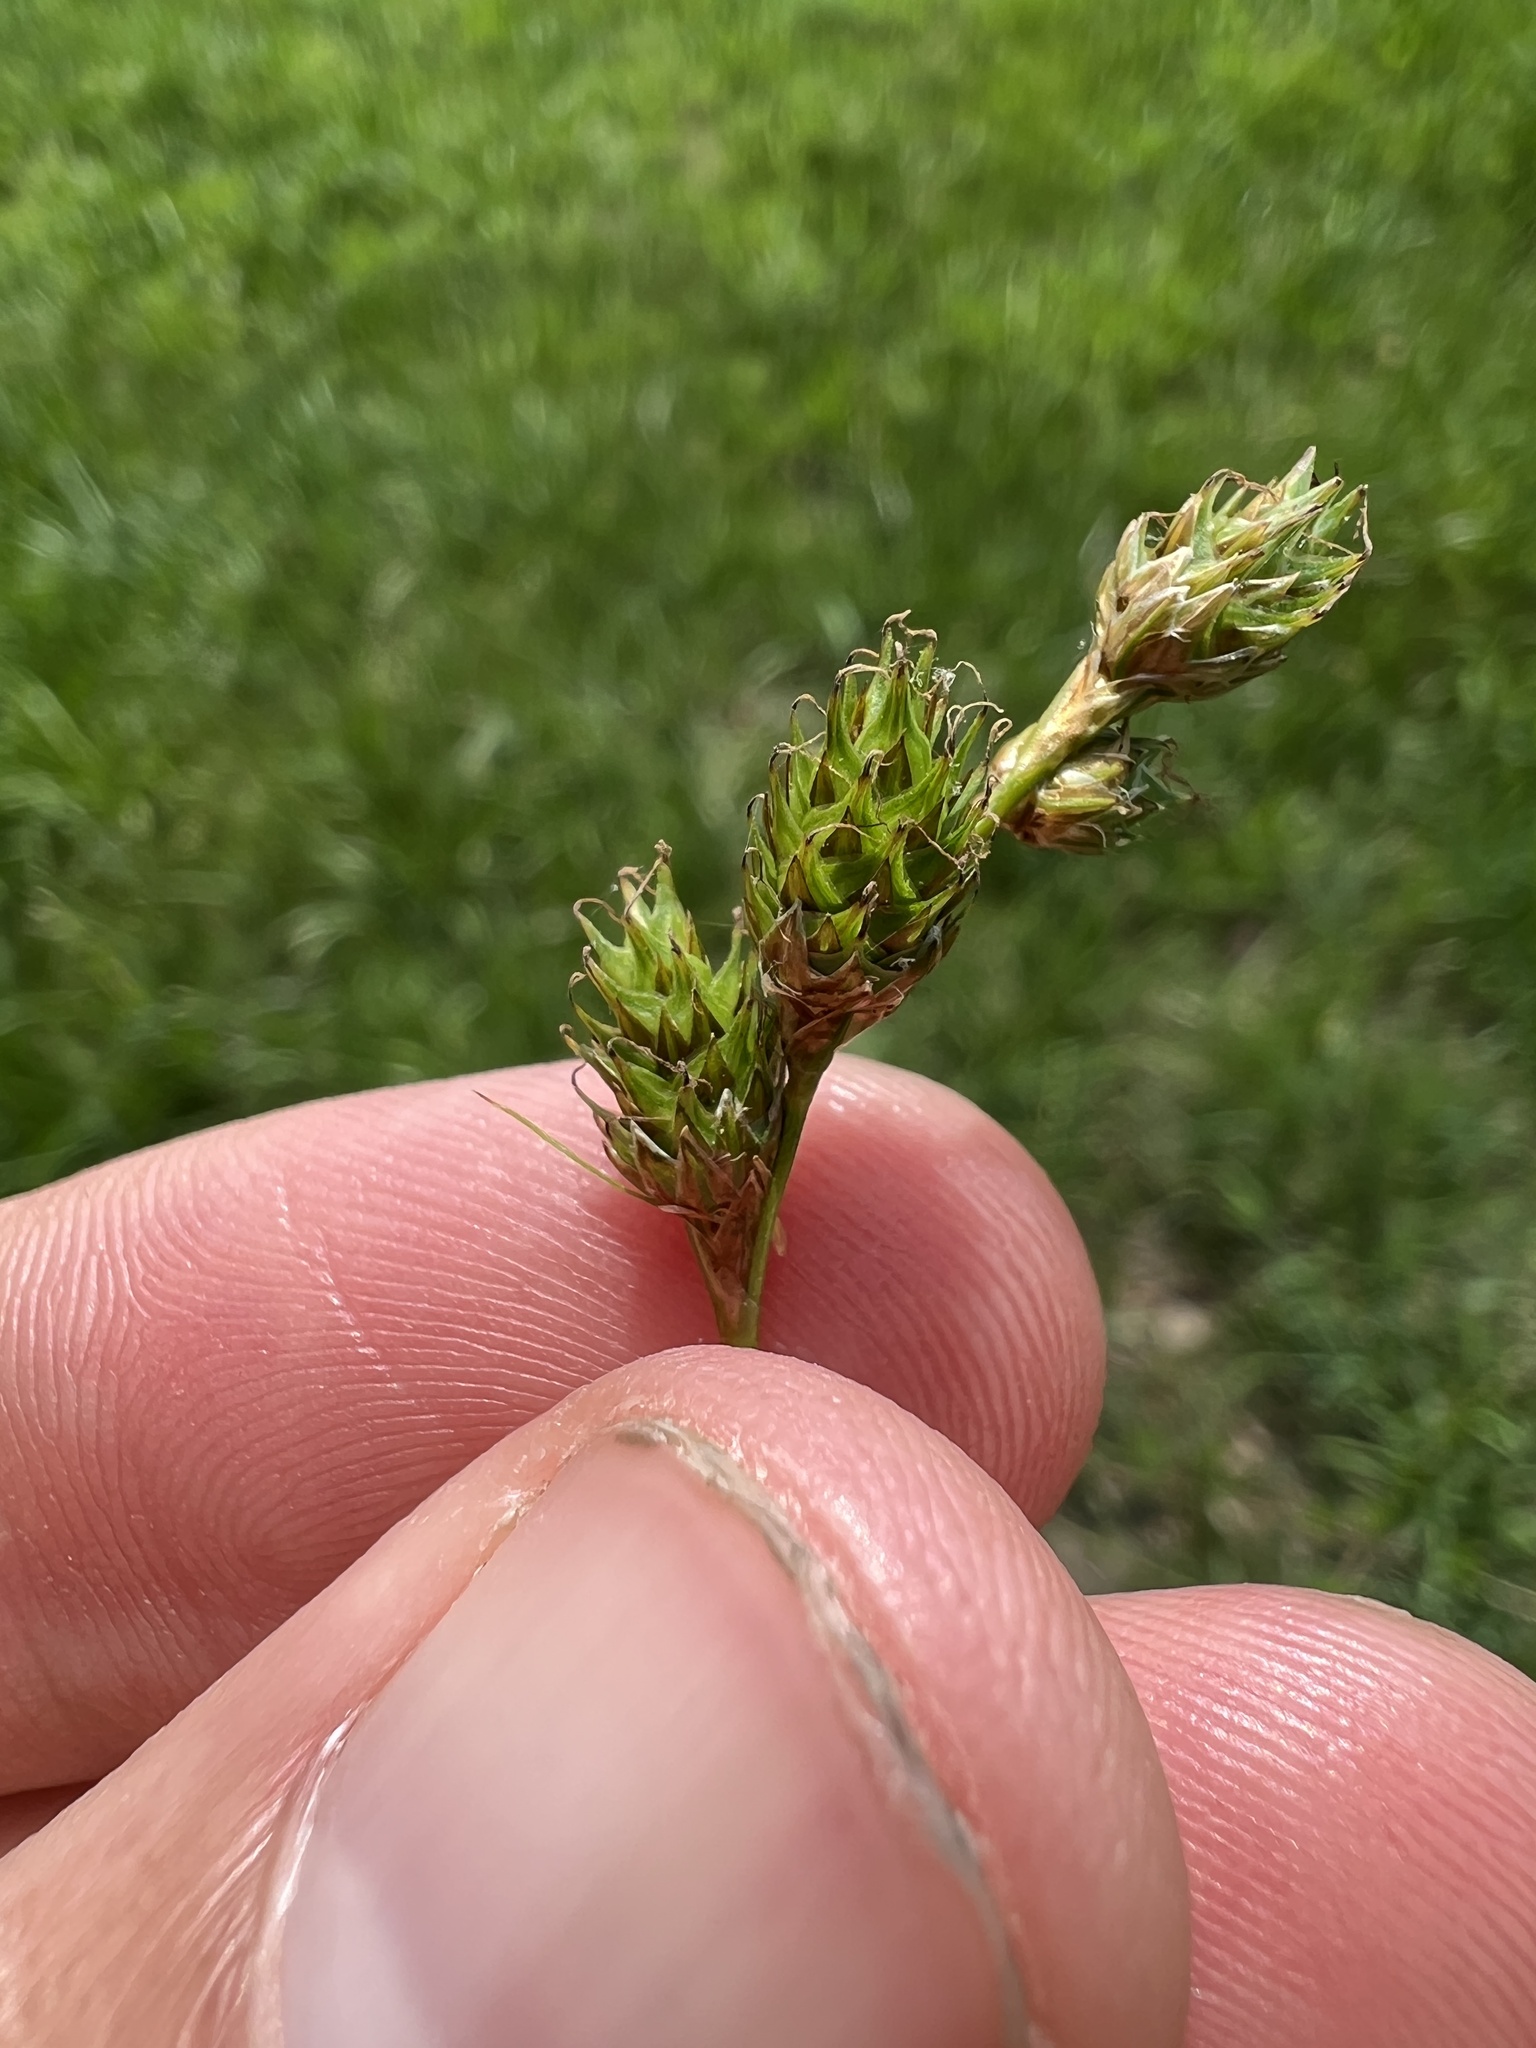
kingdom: Plantae
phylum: Tracheophyta
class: Liliopsida
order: Poales
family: Cyperaceae
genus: Carex
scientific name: Carex brevior
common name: Brevior sedge
